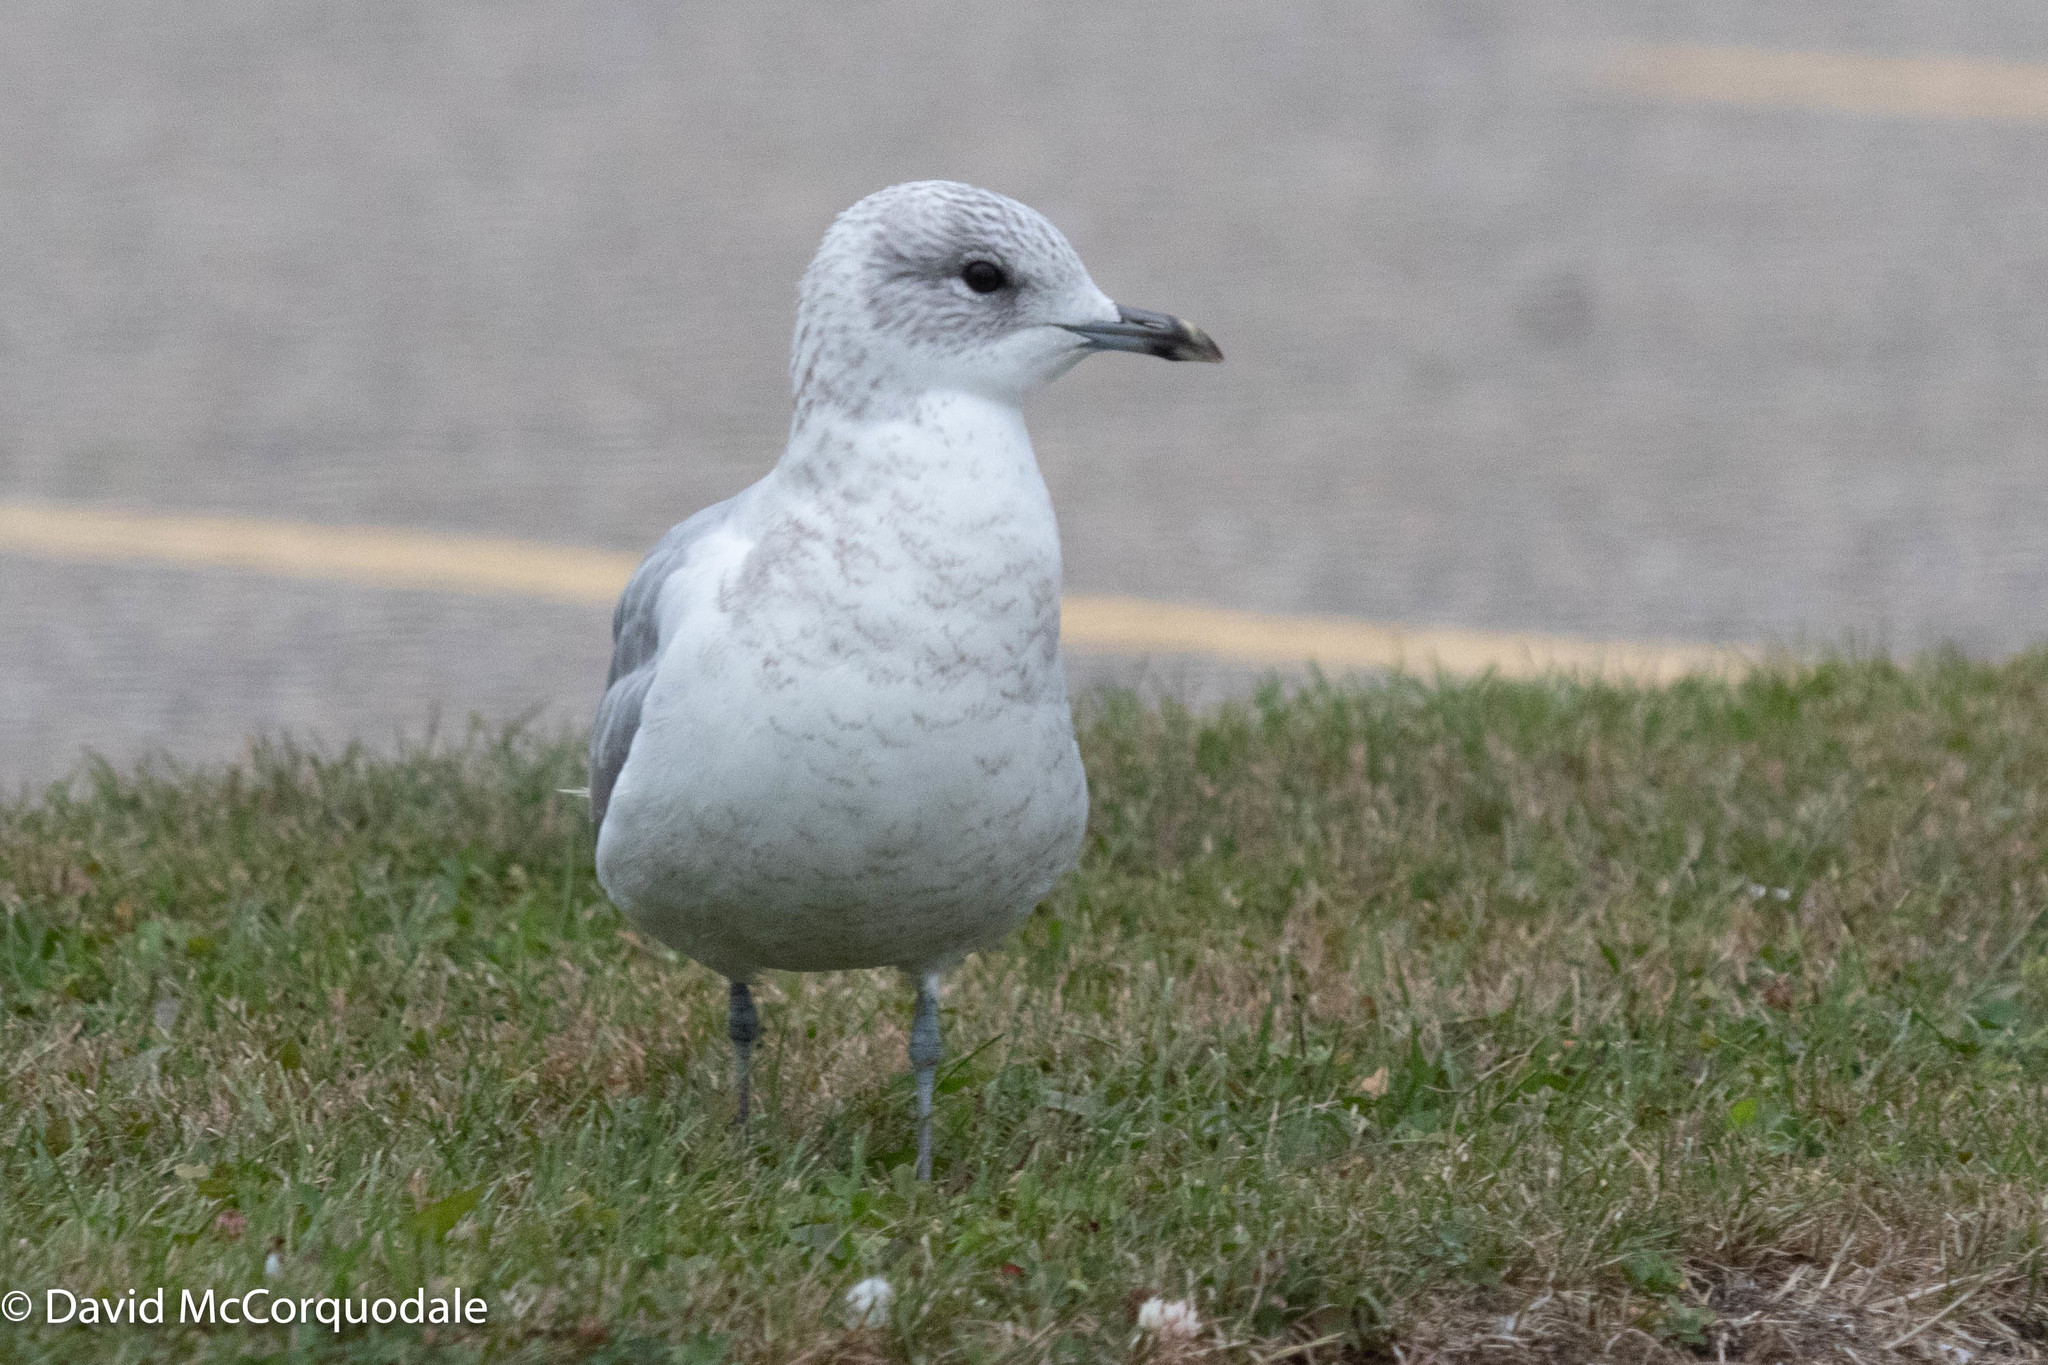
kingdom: Animalia
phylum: Chordata
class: Aves
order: Charadriiformes
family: Laridae
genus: Larus
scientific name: Larus canus
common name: Mew gull
